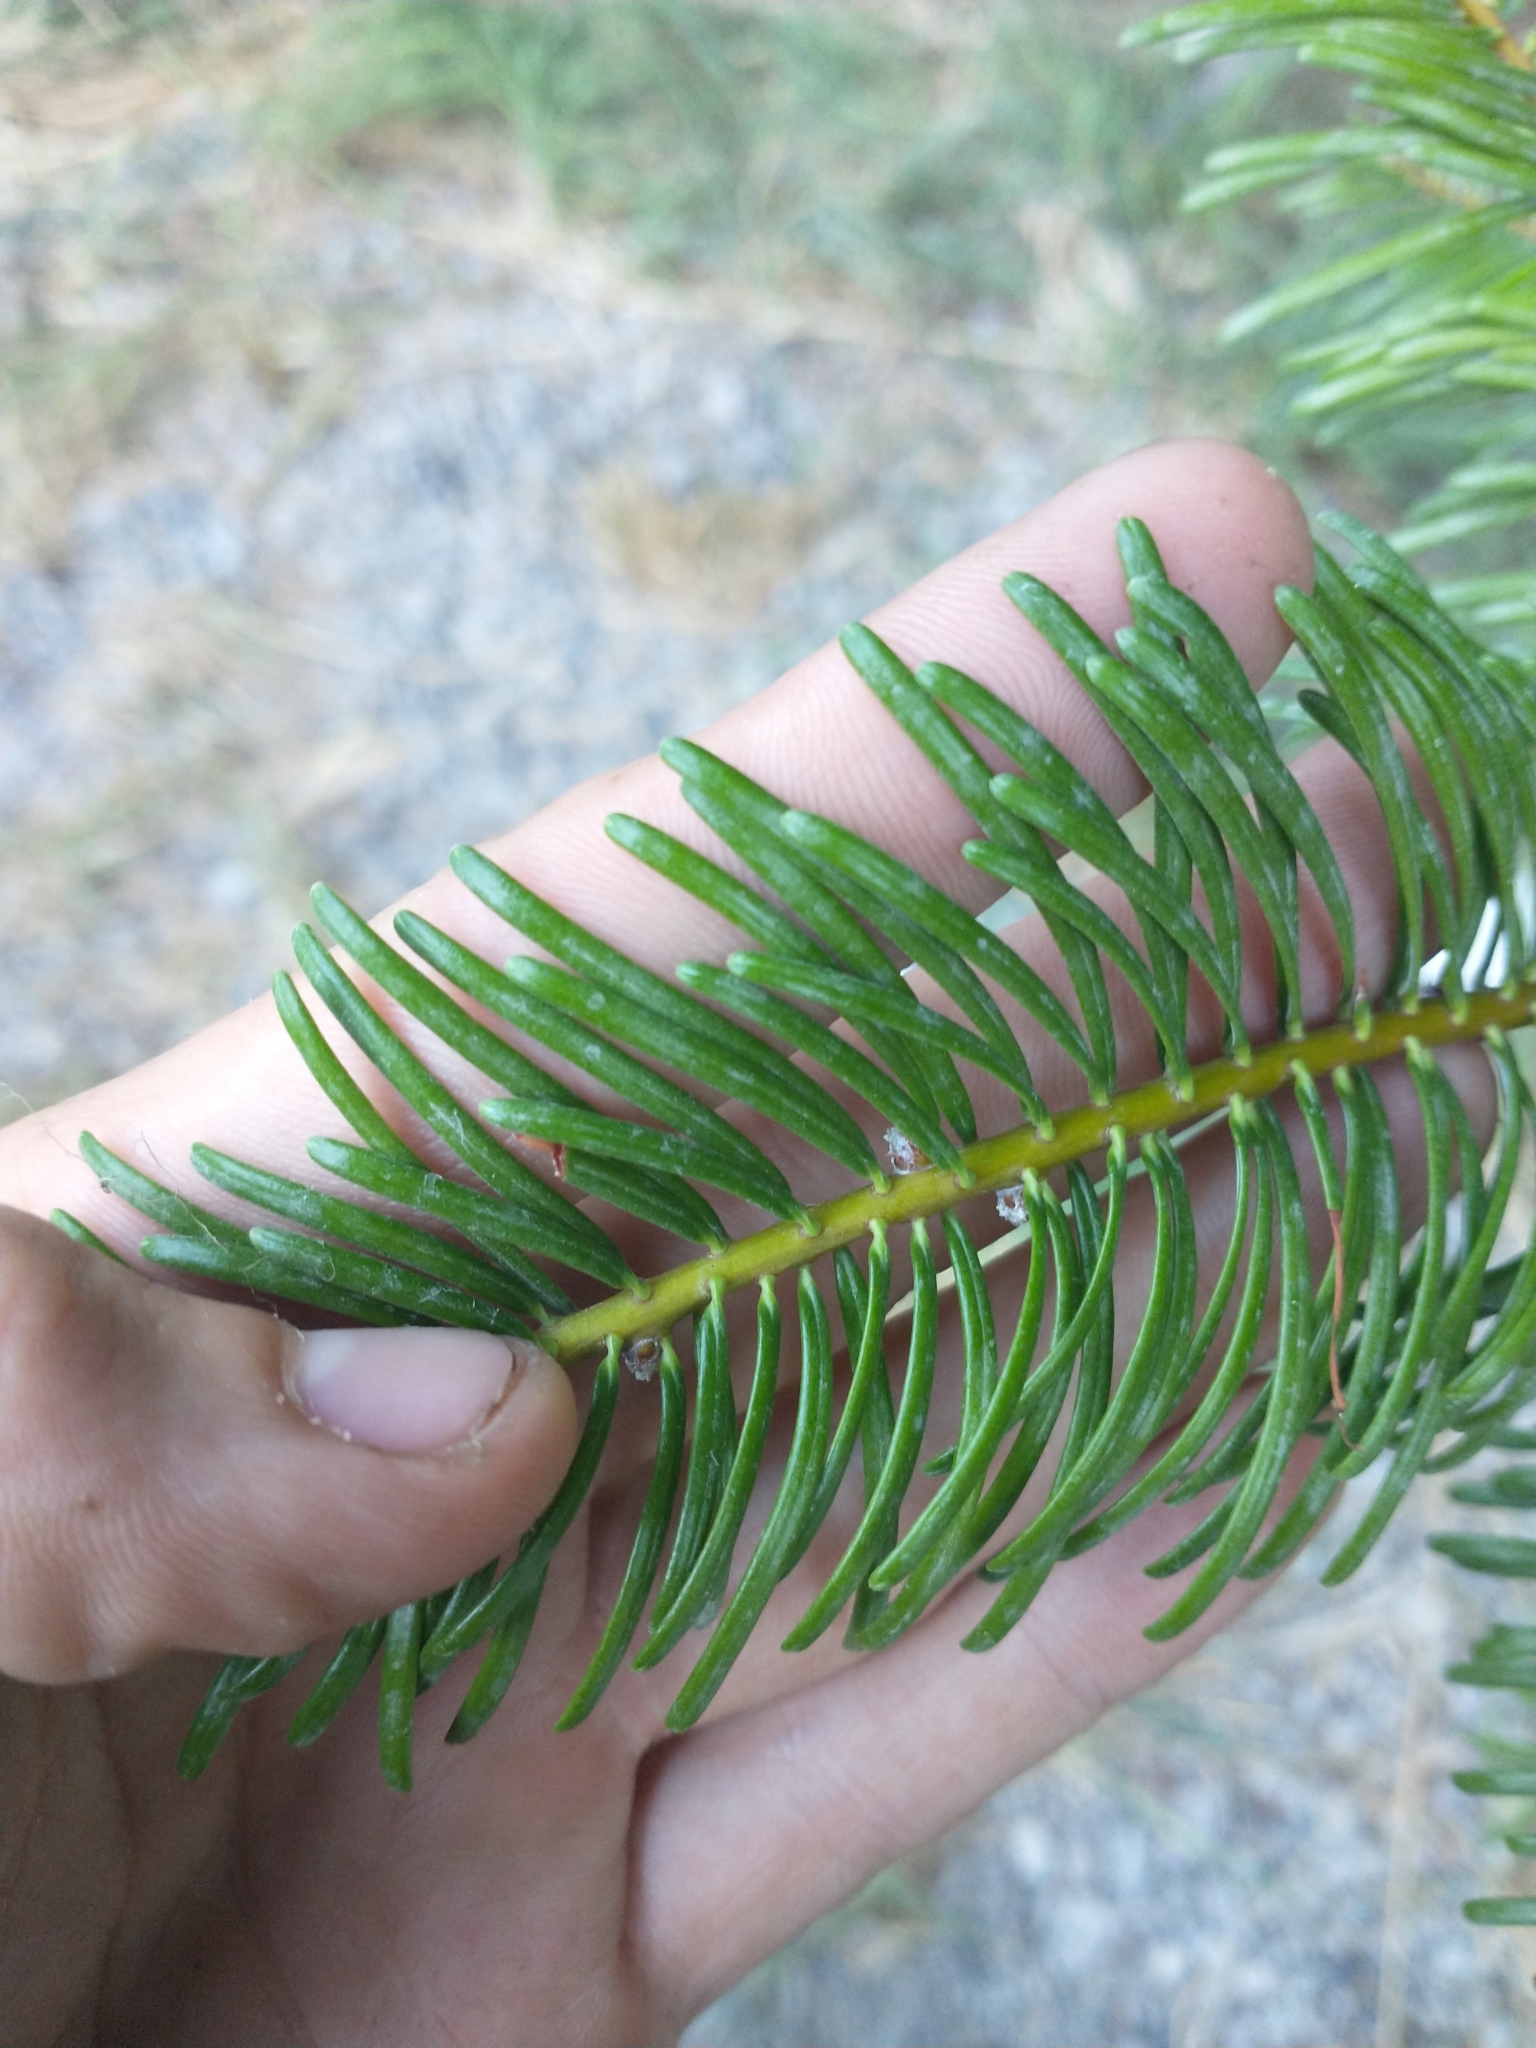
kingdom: Plantae
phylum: Tracheophyta
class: Pinopsida
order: Pinales
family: Pinaceae
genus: Abies
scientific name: Abies concolor
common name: Colorado fir
